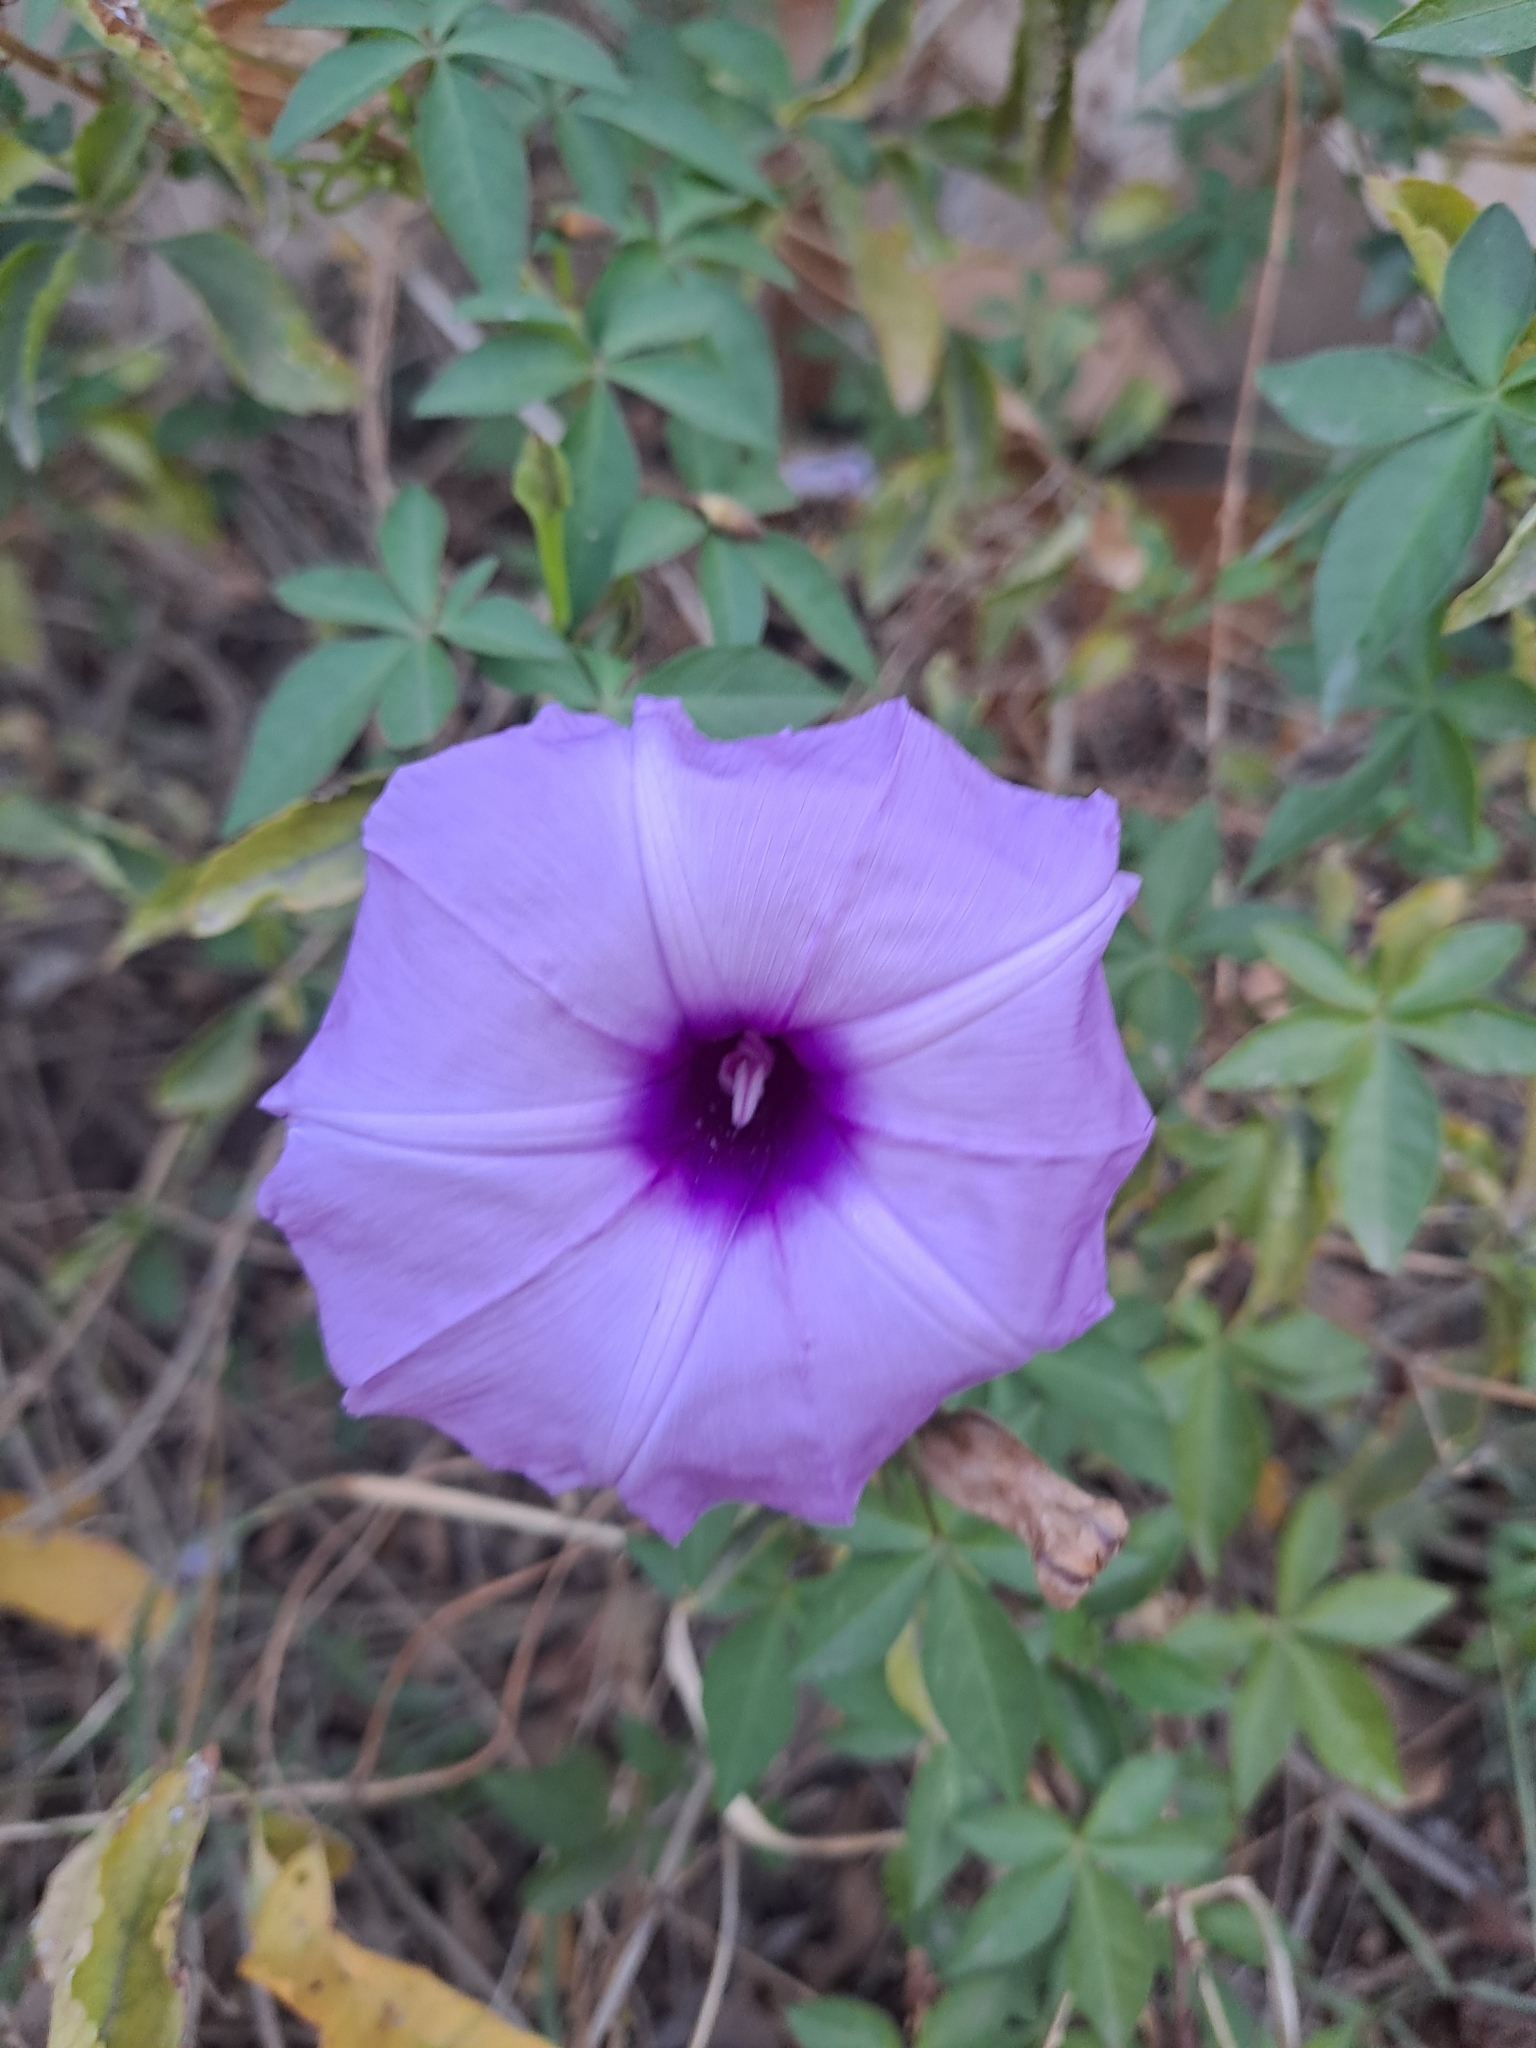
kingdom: Plantae
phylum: Tracheophyta
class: Magnoliopsida
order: Solanales
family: Convolvulaceae
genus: Ipomoea
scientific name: Ipomoea cairica
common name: Mile a minute vine
